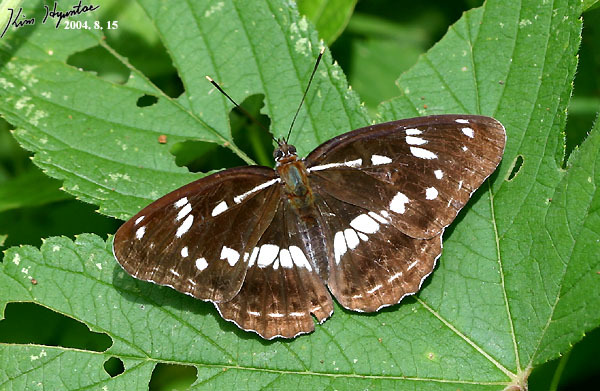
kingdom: Animalia
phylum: Arthropoda
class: Insecta
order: Lepidoptera
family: Nymphalidae
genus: Limenitis
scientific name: Limenitis helmanni
